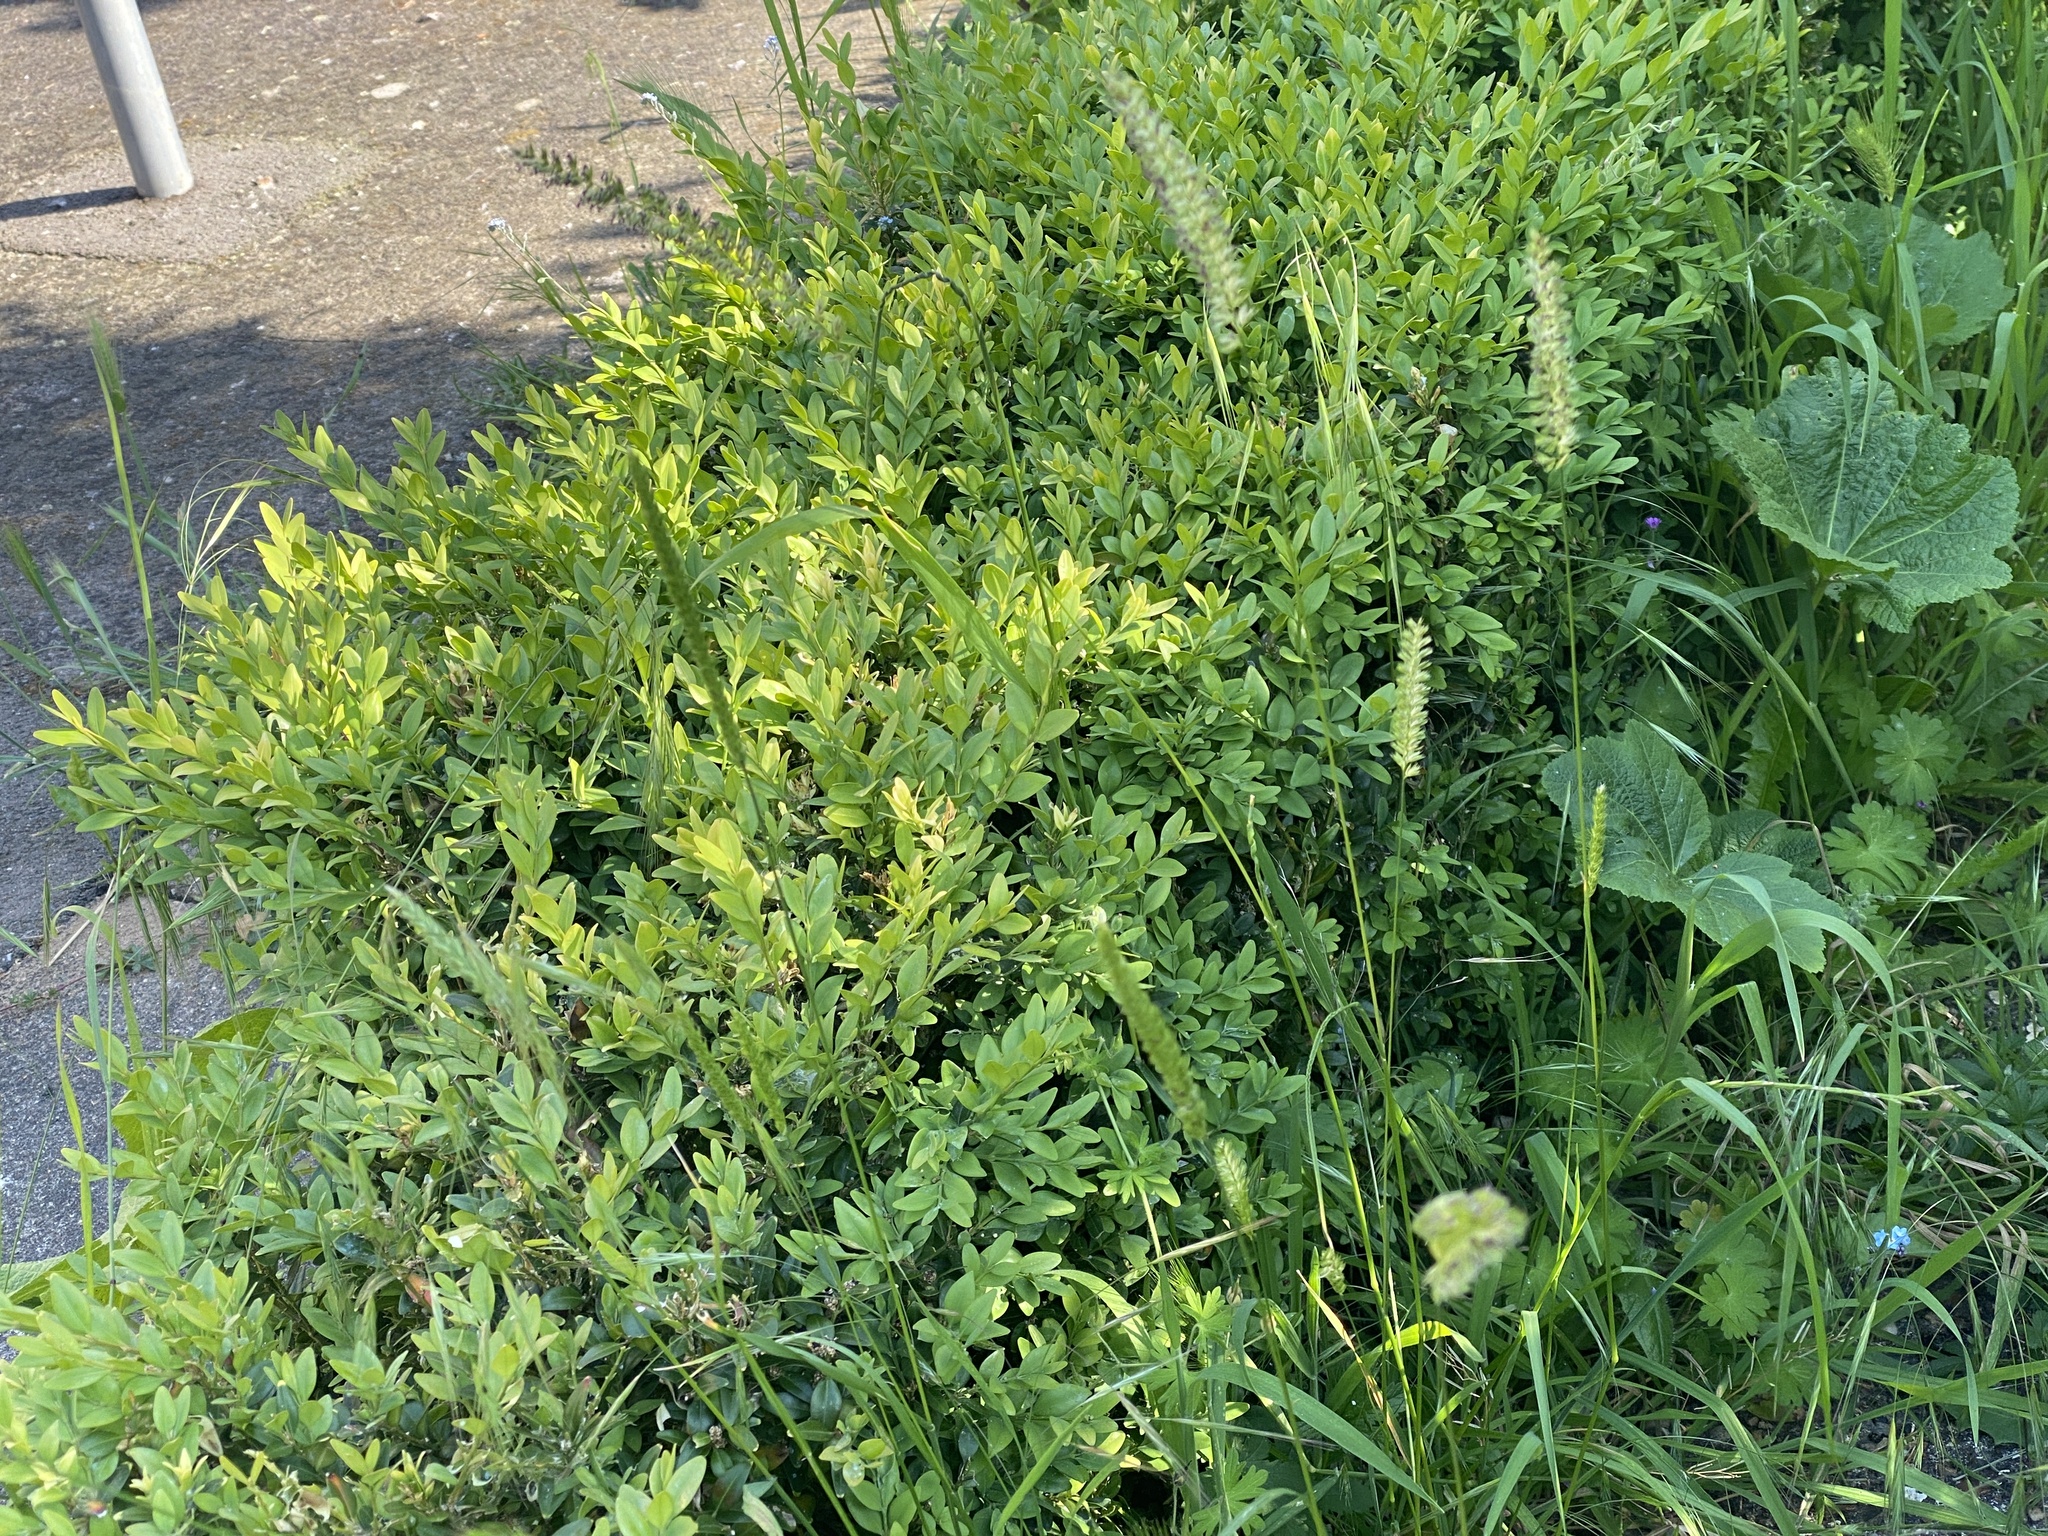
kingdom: Plantae
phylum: Tracheophyta
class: Liliopsida
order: Poales
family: Poaceae
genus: Cynosurus
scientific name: Cynosurus cristatus
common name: Crested dog's-tail
